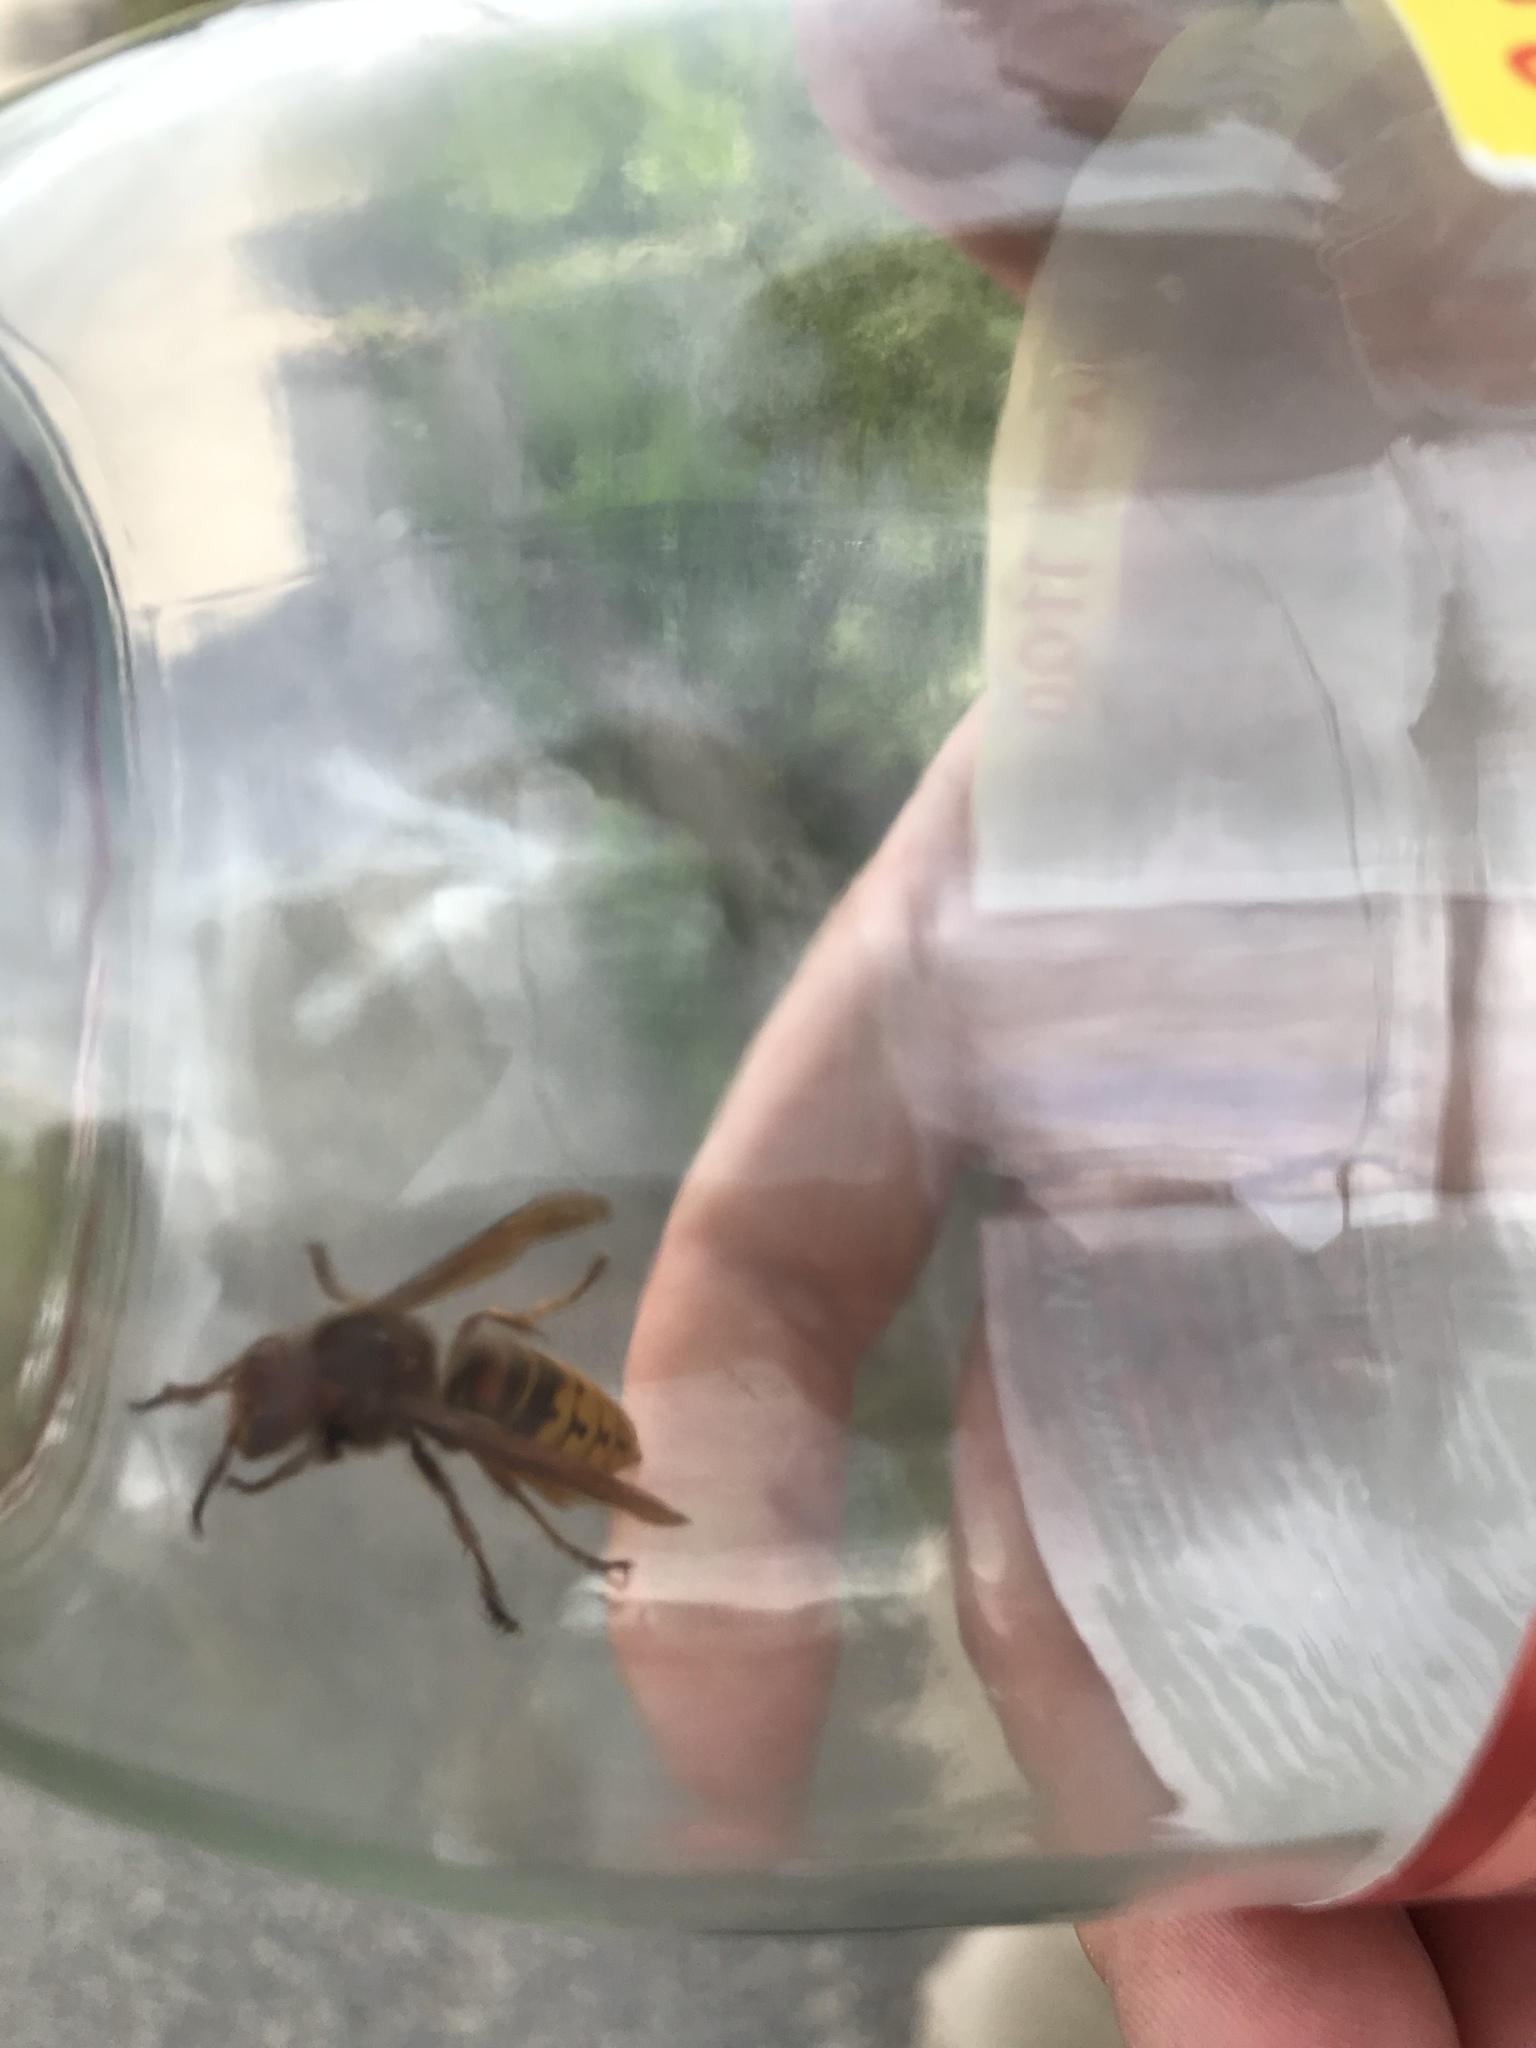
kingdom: Animalia
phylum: Arthropoda
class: Insecta
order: Hymenoptera
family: Vespidae
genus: Vespa
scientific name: Vespa crabro
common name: Hornet
